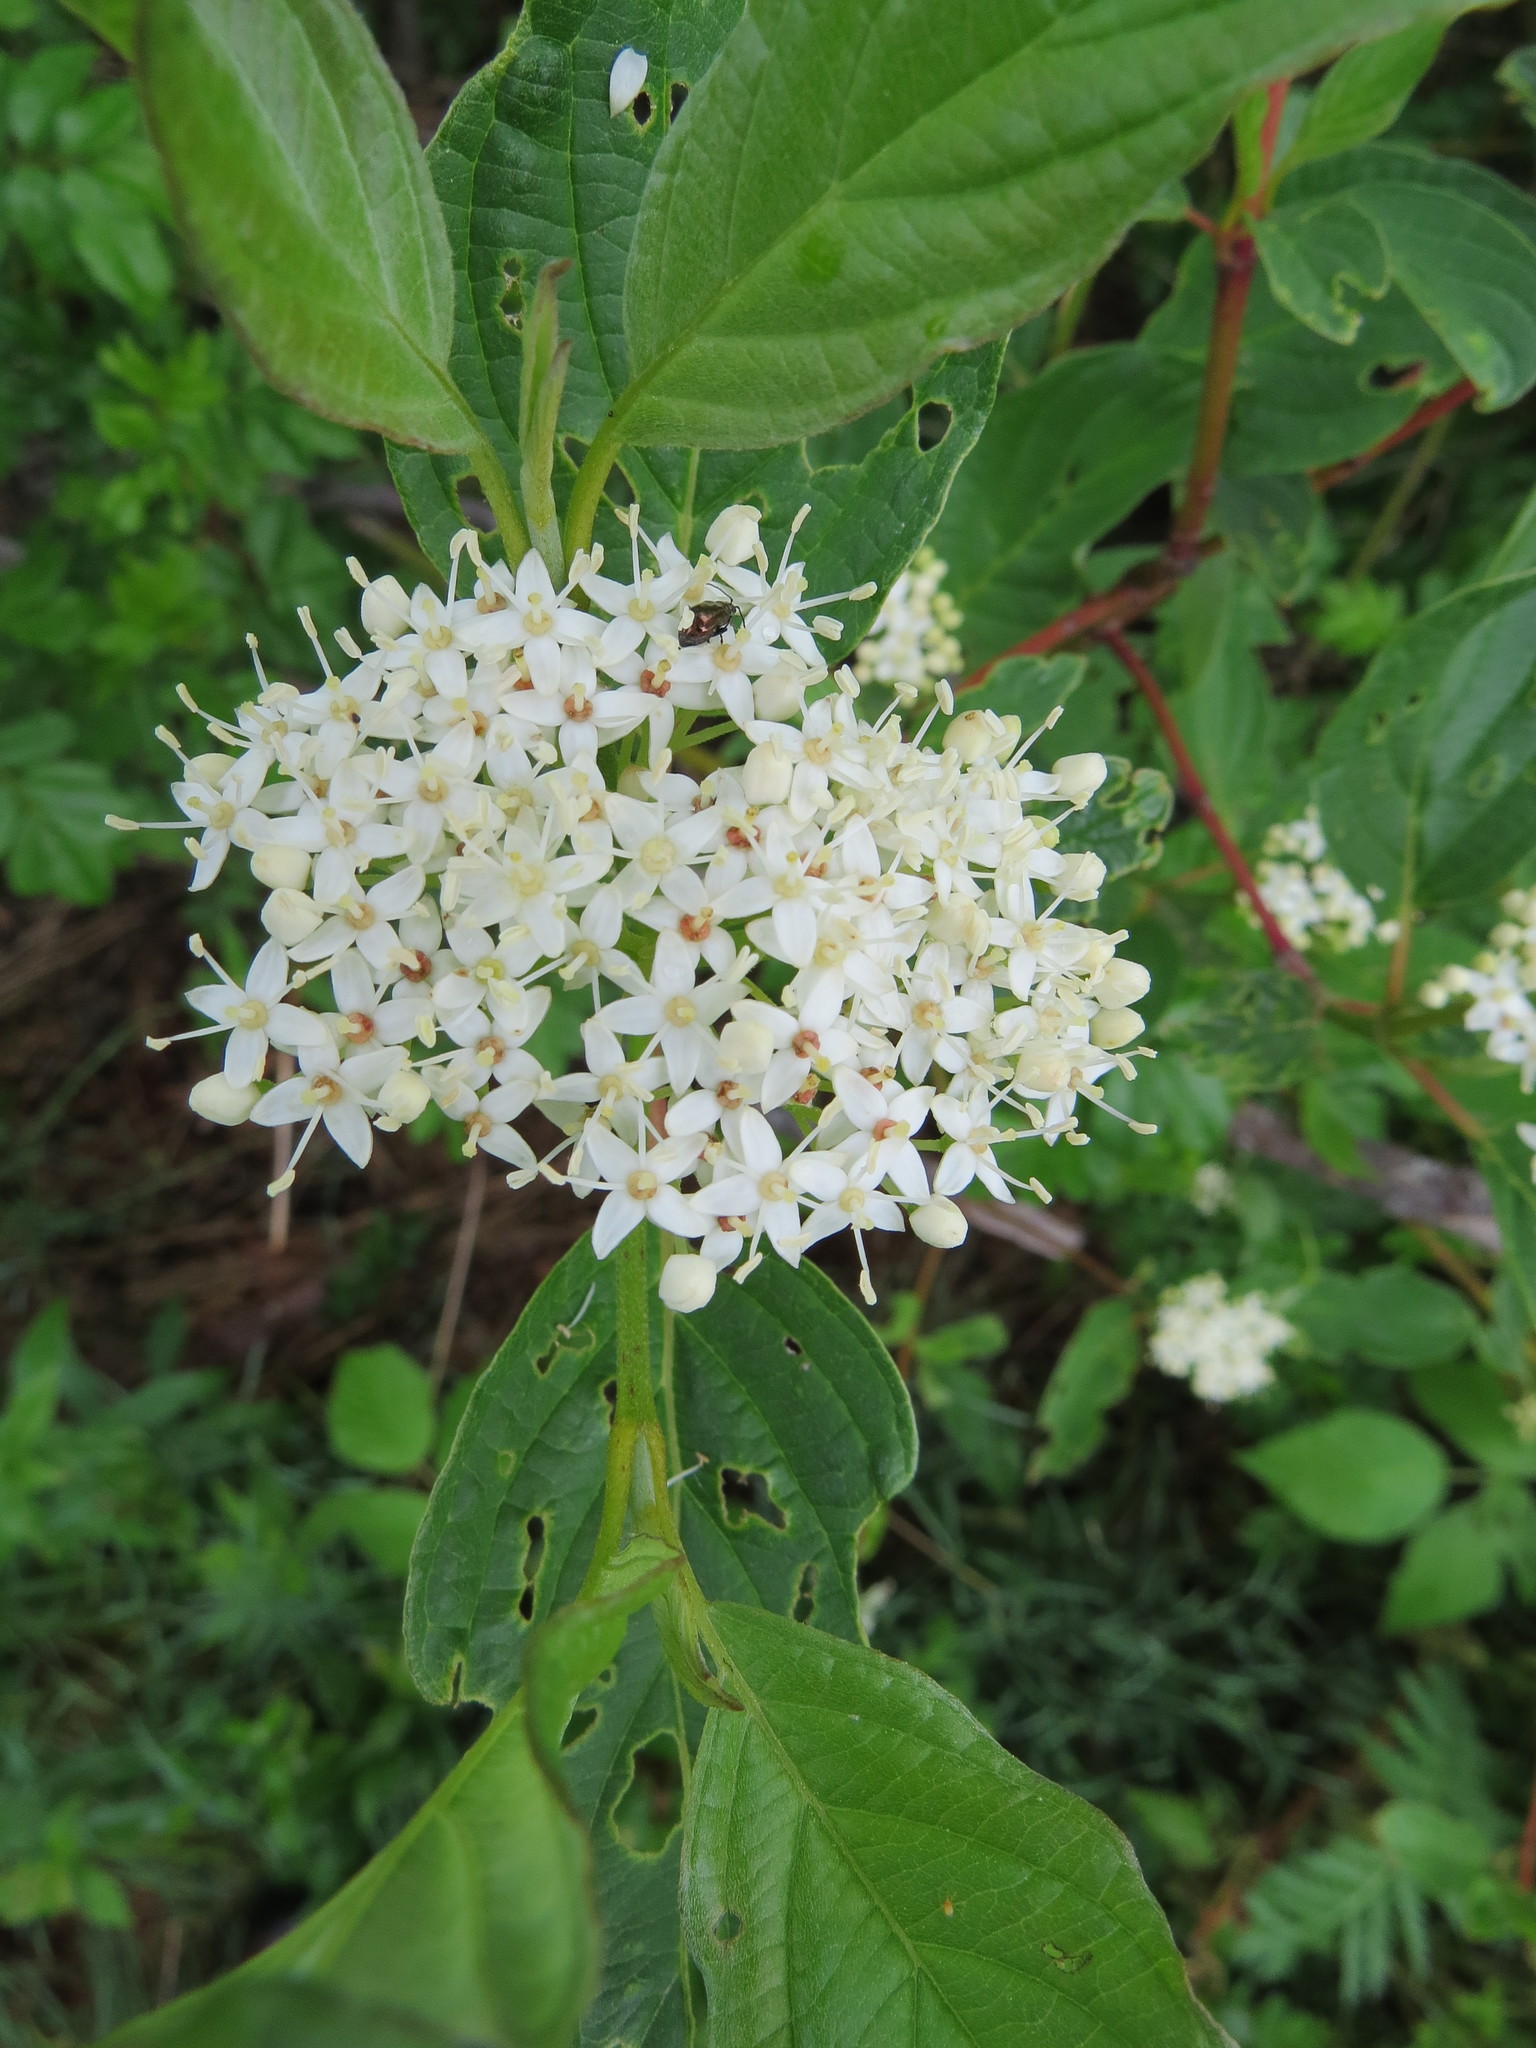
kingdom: Plantae
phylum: Tracheophyta
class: Magnoliopsida
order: Cornales
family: Cornaceae
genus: Cornus
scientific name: Cornus sericea
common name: Red-osier dogwood
